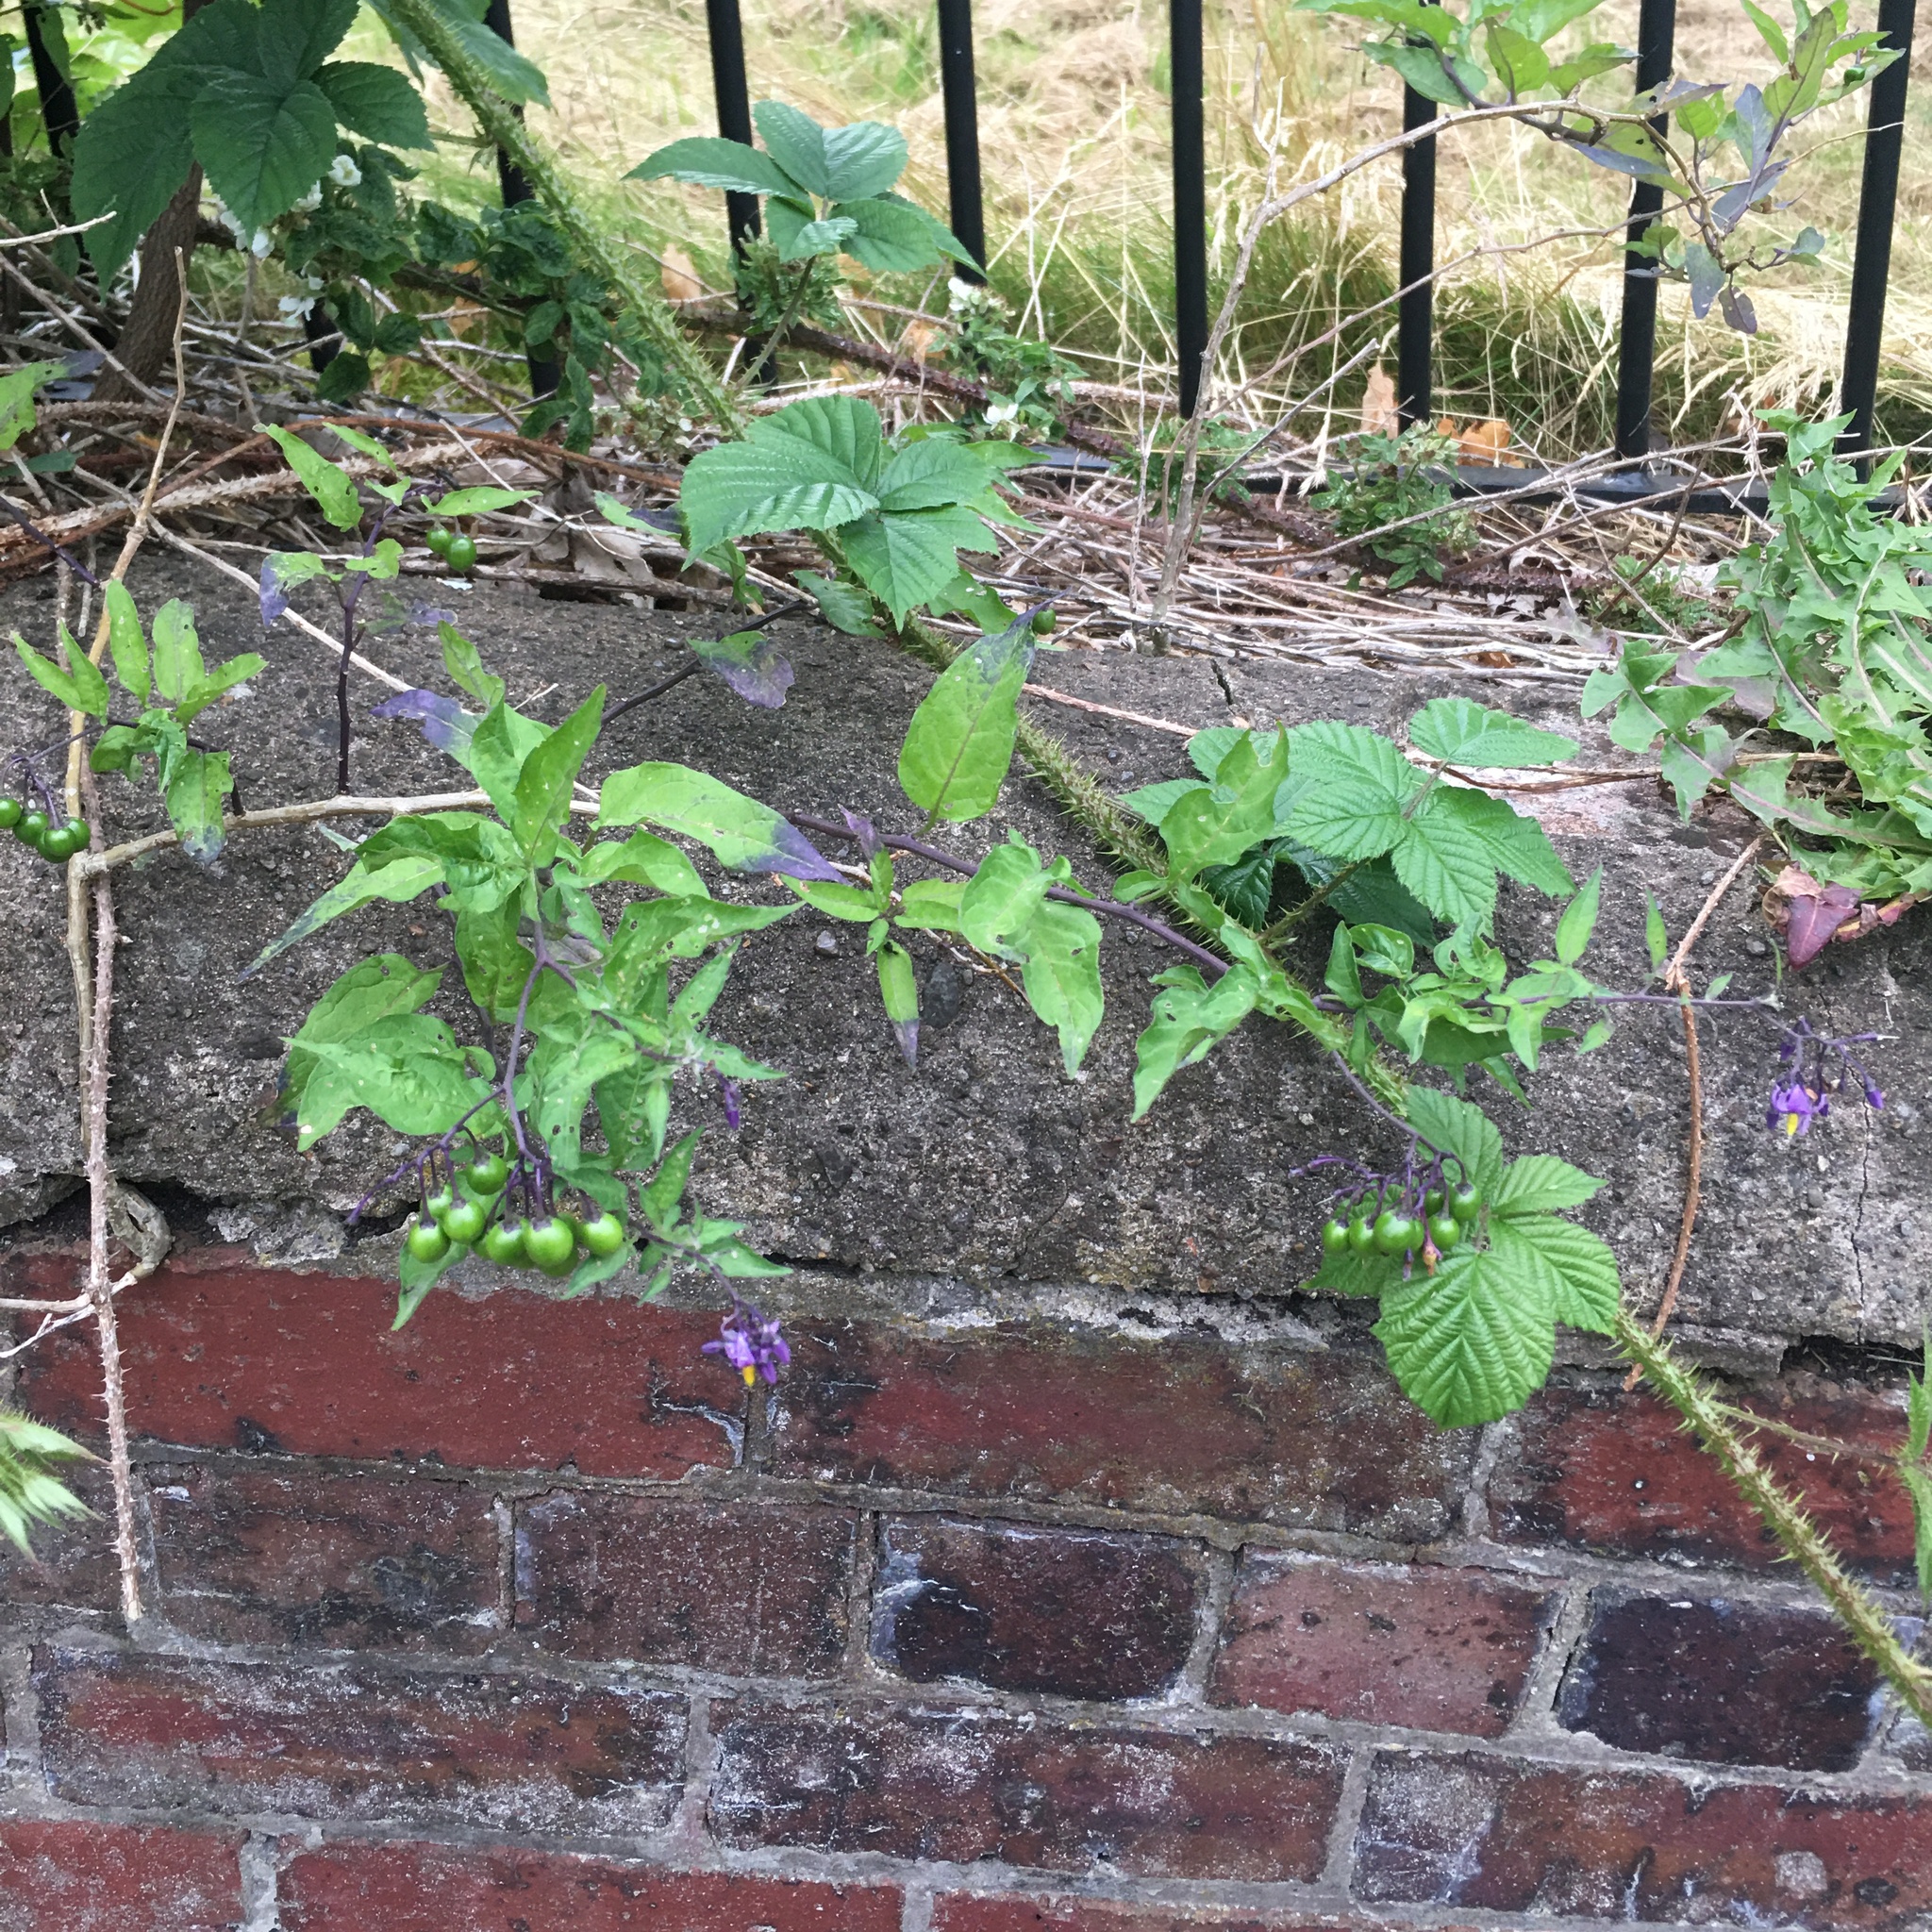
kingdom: Plantae
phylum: Tracheophyta
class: Magnoliopsida
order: Solanales
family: Solanaceae
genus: Solanum
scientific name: Solanum dulcamara
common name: Climbing nightshade
